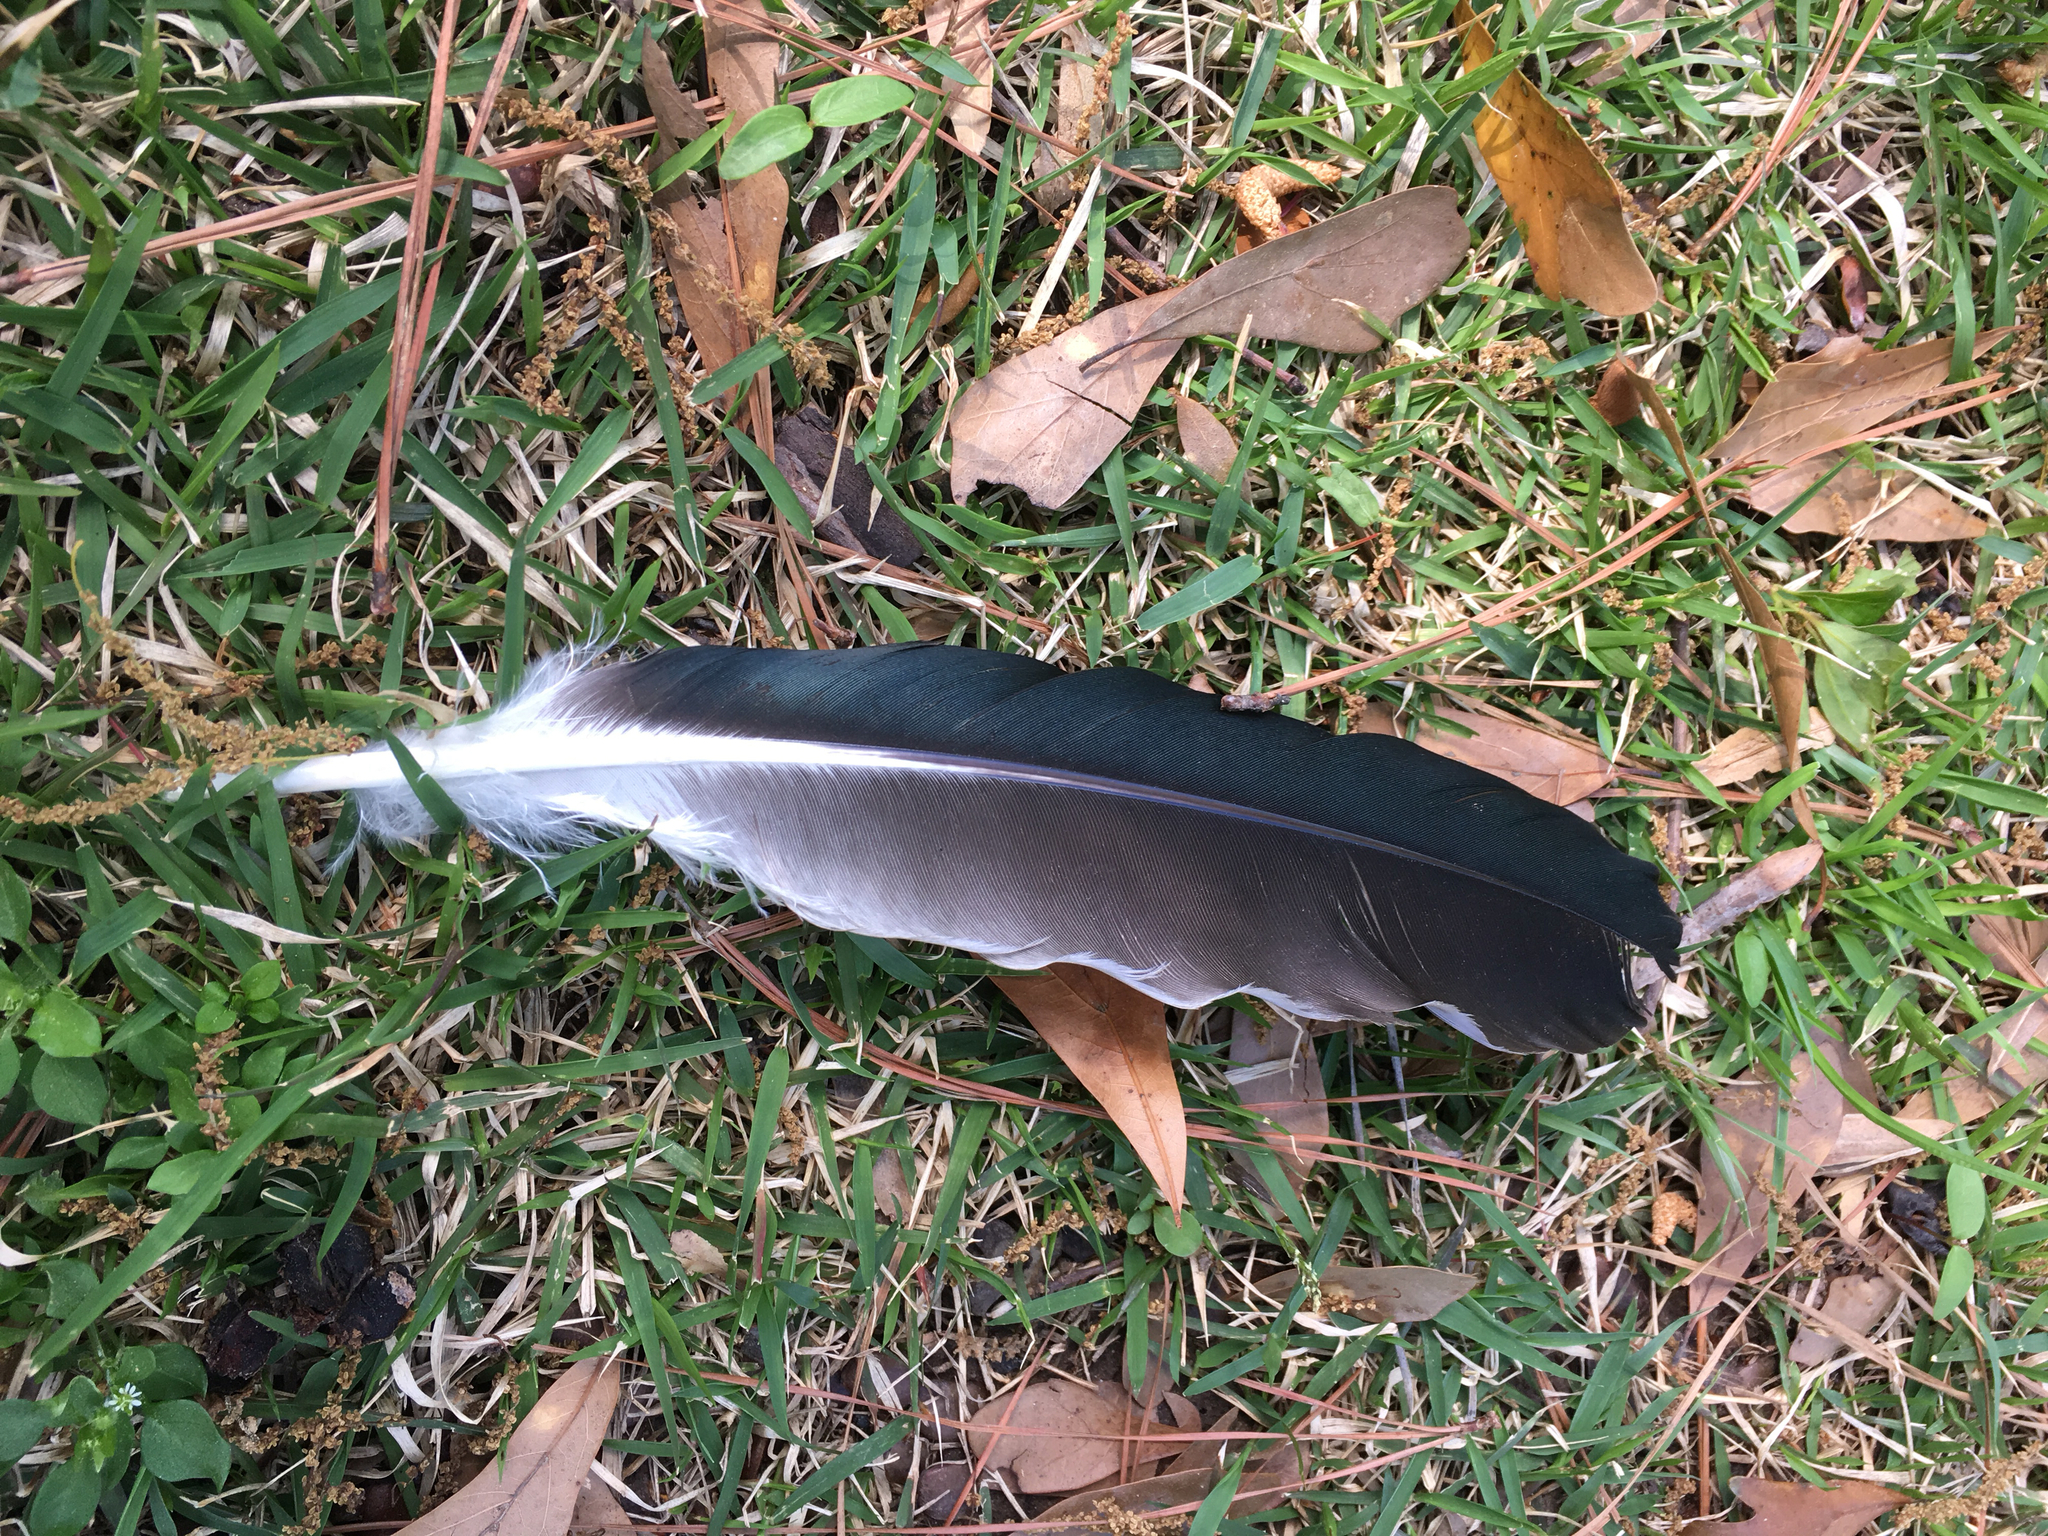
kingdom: Animalia
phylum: Chordata
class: Aves
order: Anseriformes
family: Anatidae
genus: Cairina
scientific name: Cairina moschata
